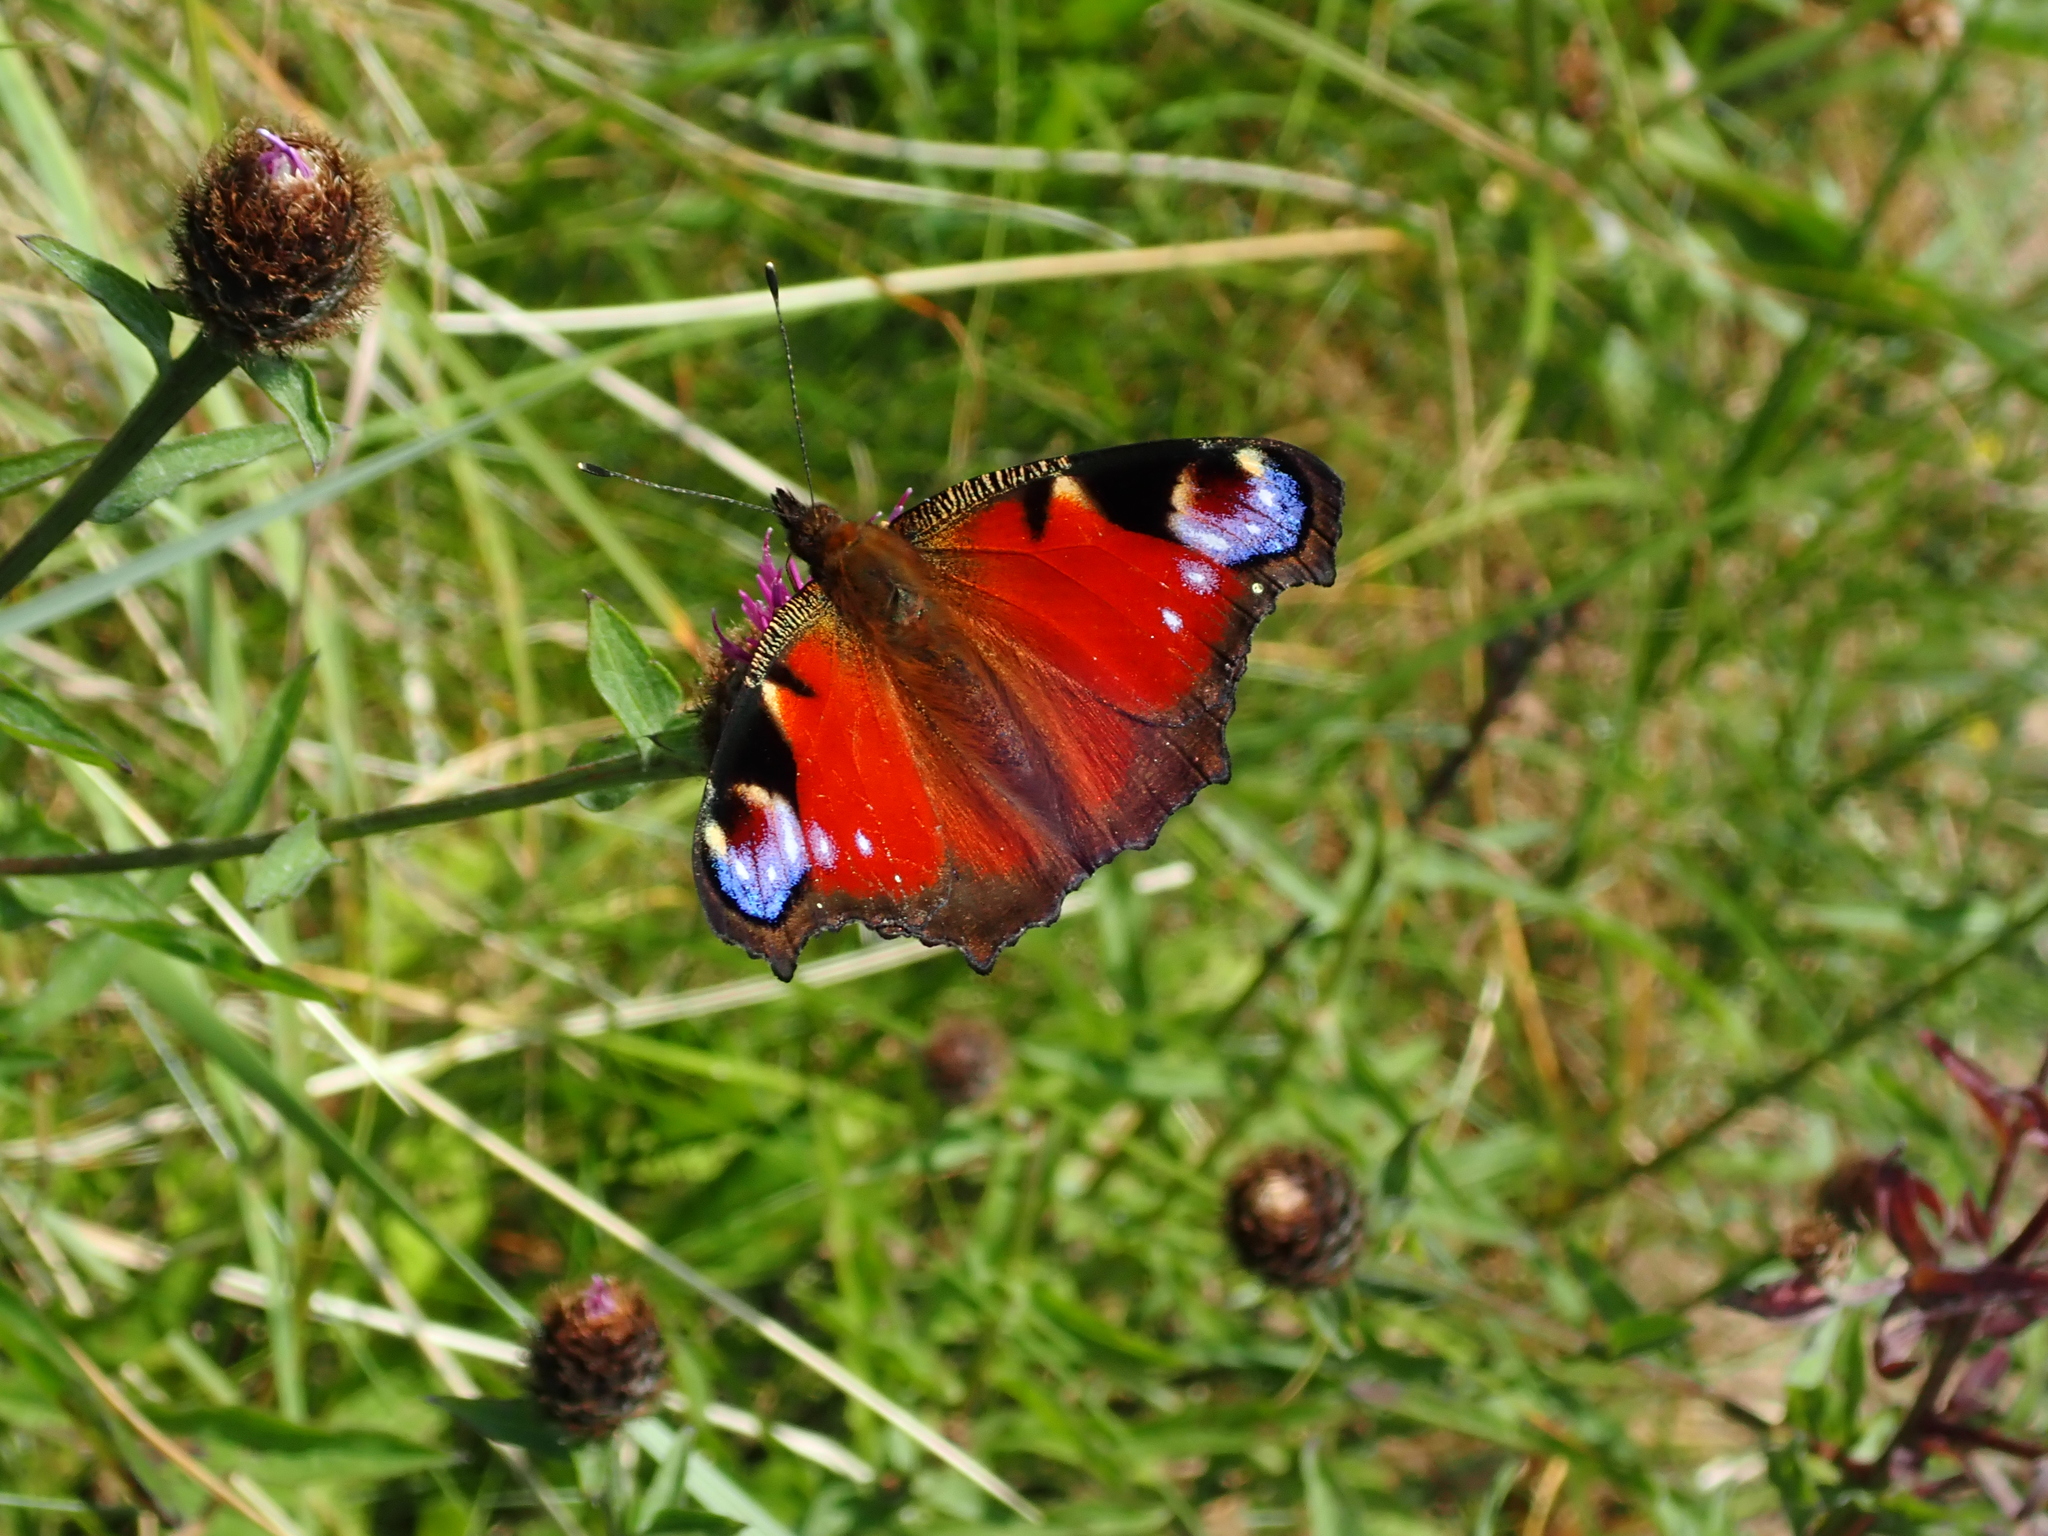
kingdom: Animalia
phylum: Arthropoda
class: Insecta
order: Lepidoptera
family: Nymphalidae
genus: Aglais
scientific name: Aglais io
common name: Peacock
